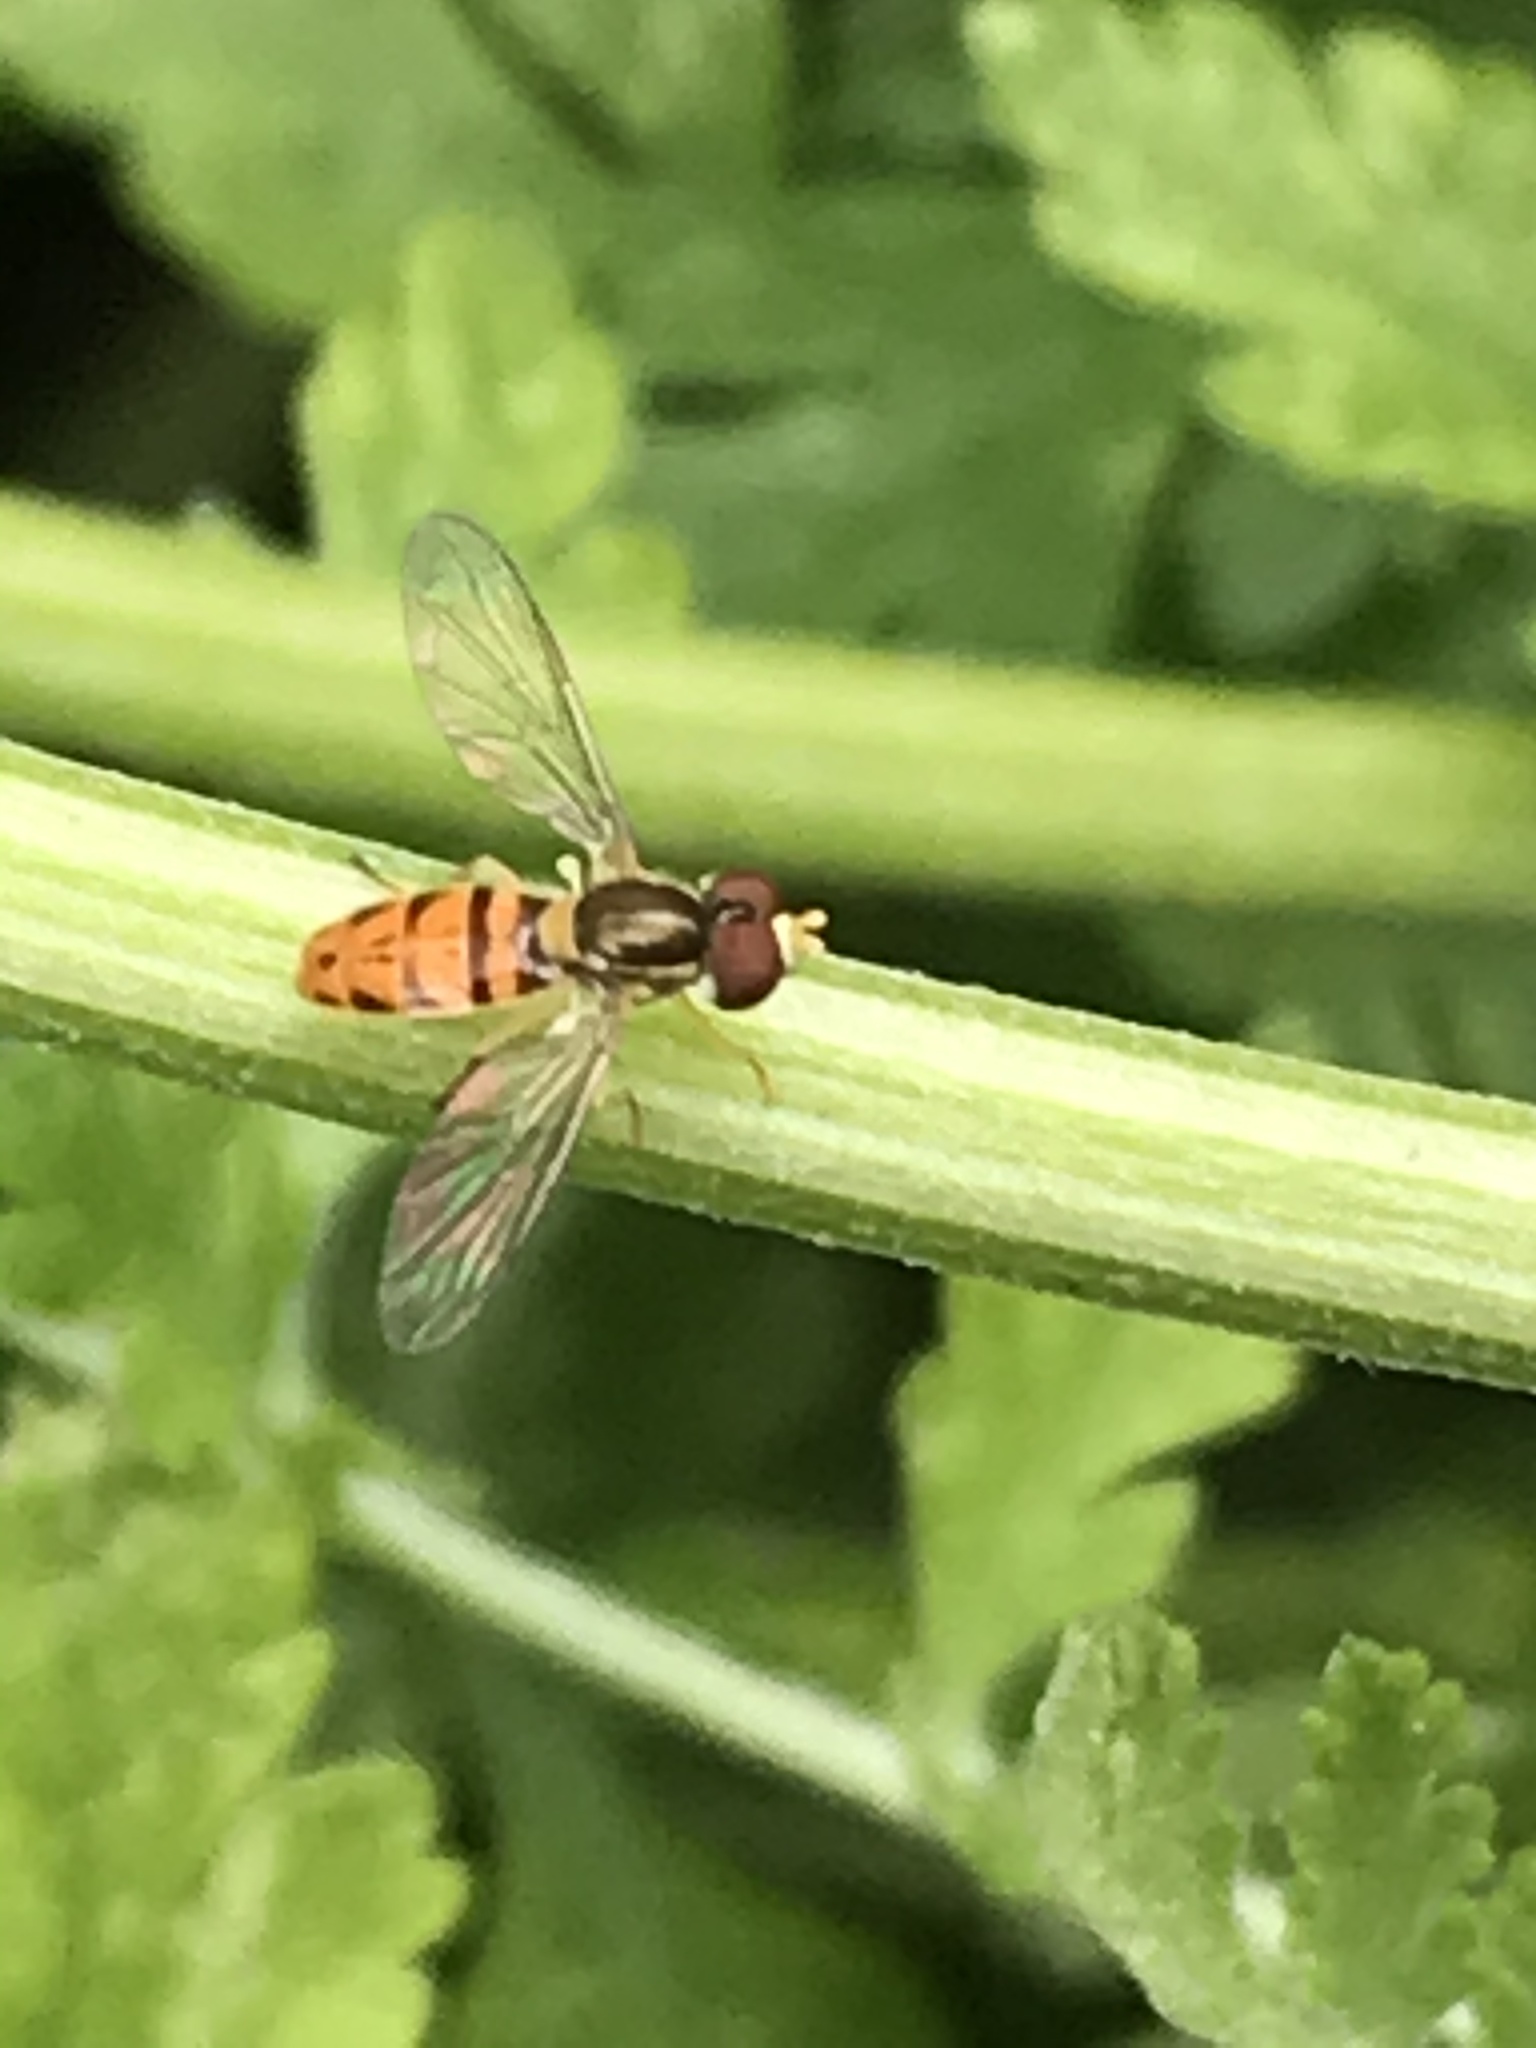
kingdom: Animalia
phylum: Arthropoda
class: Insecta
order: Diptera
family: Syrphidae
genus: Toxomerus
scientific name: Toxomerus marginatus
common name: Syrphid fly
